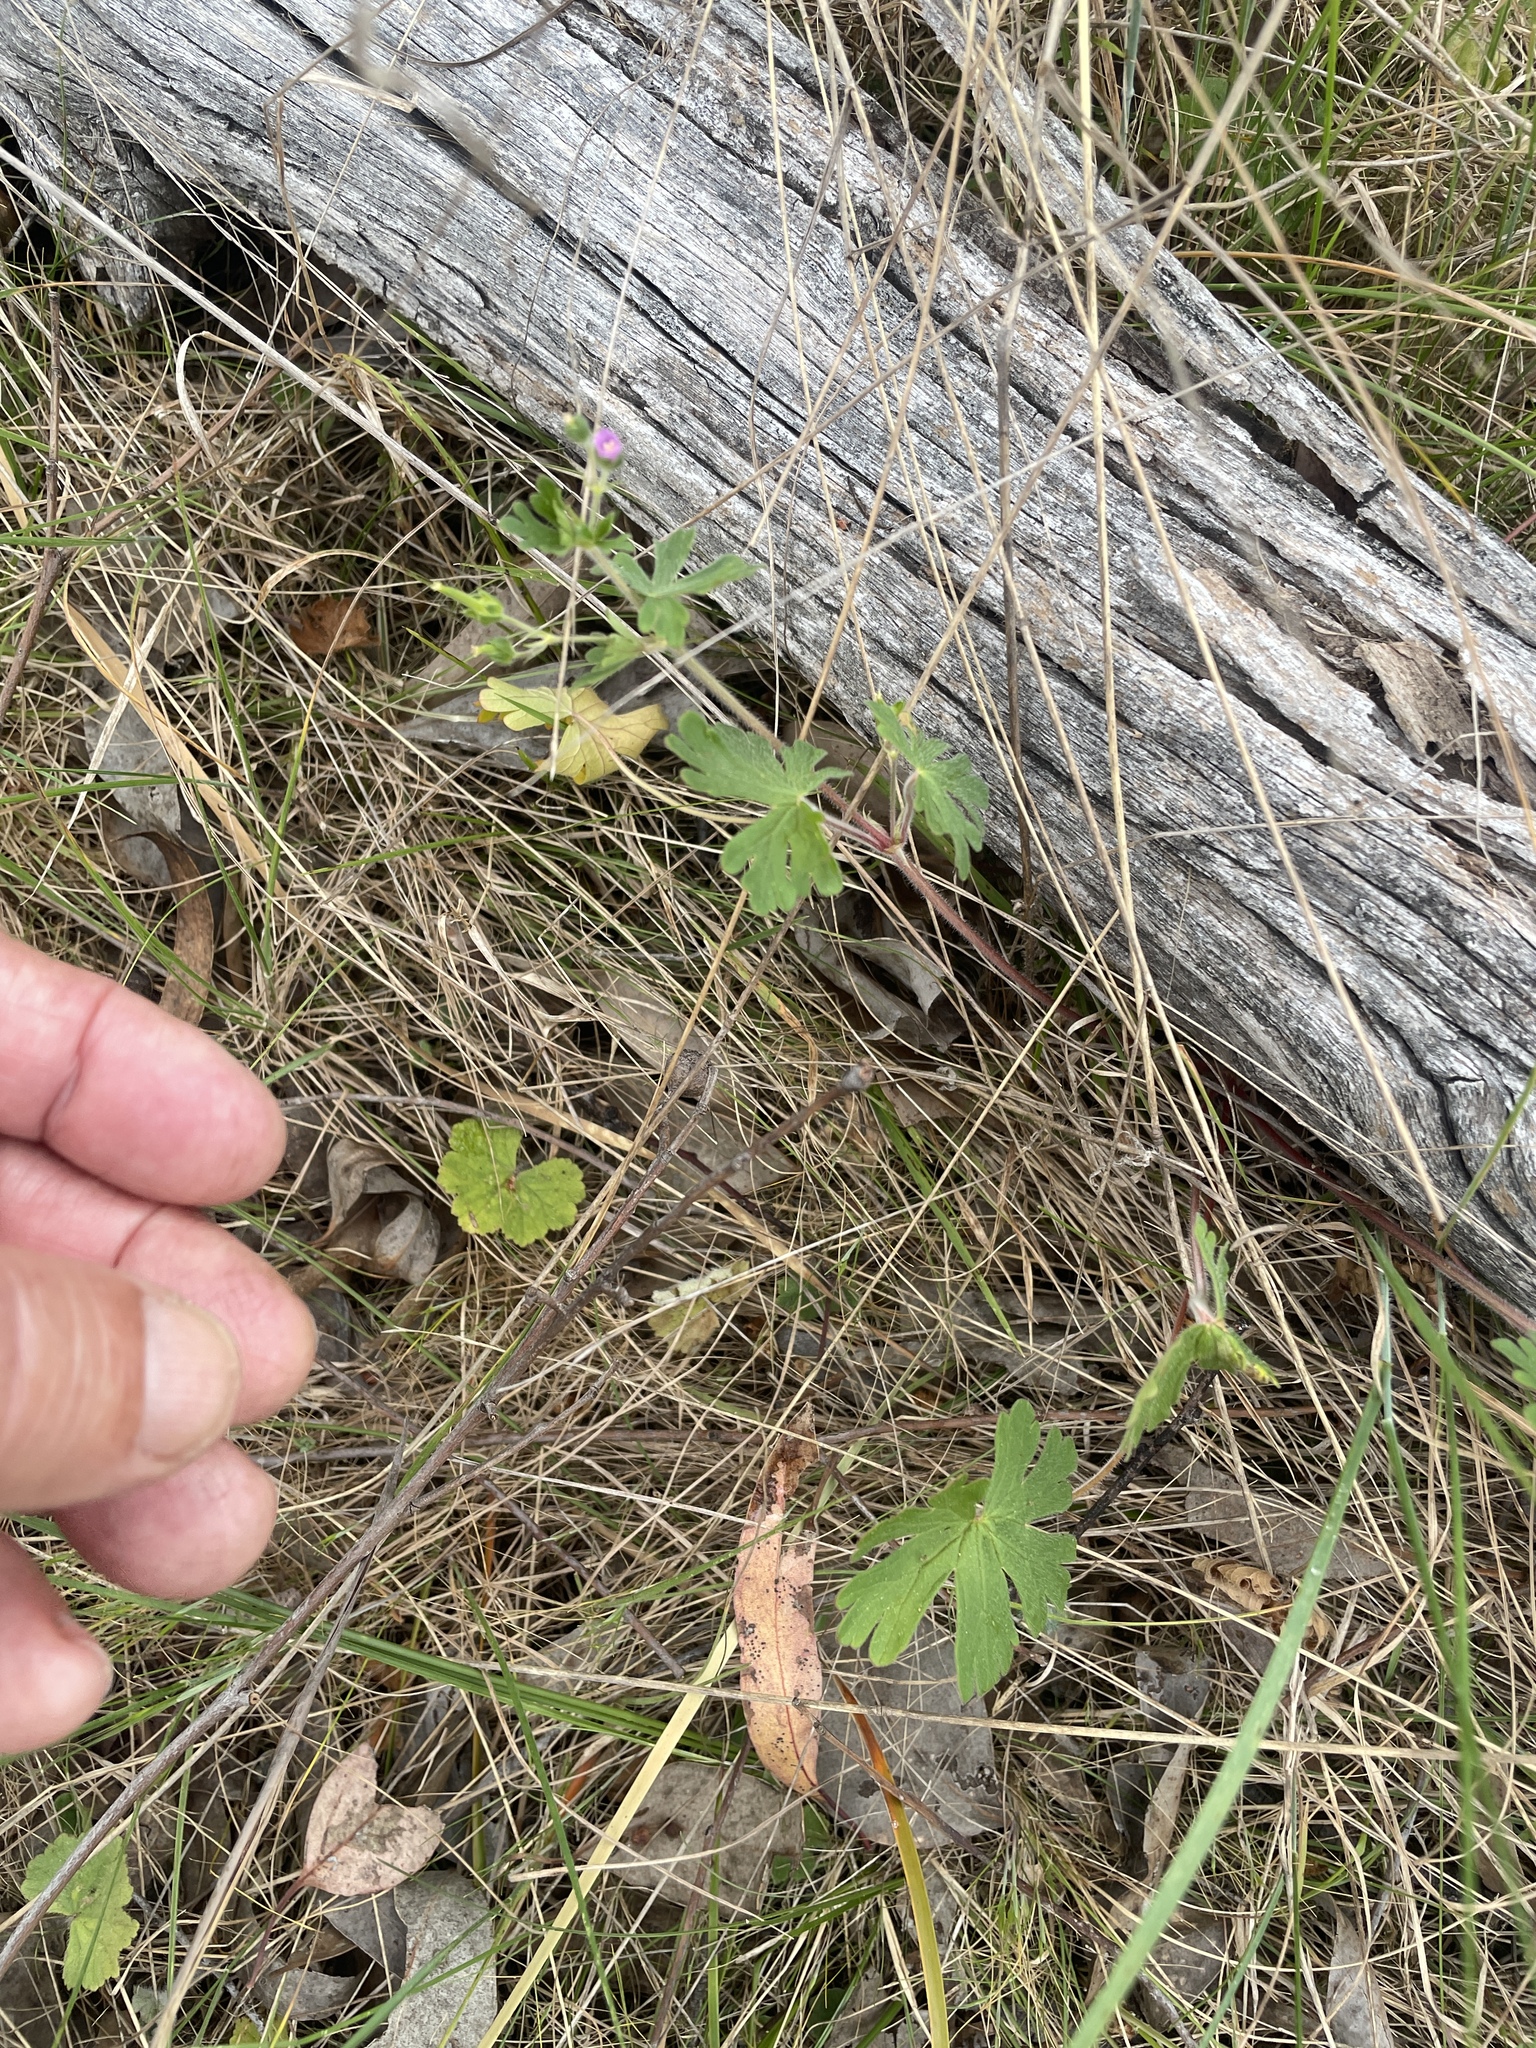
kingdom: Plantae
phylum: Tracheophyta
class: Magnoliopsida
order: Geraniales
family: Geraniaceae
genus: Geranium
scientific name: Geranium
